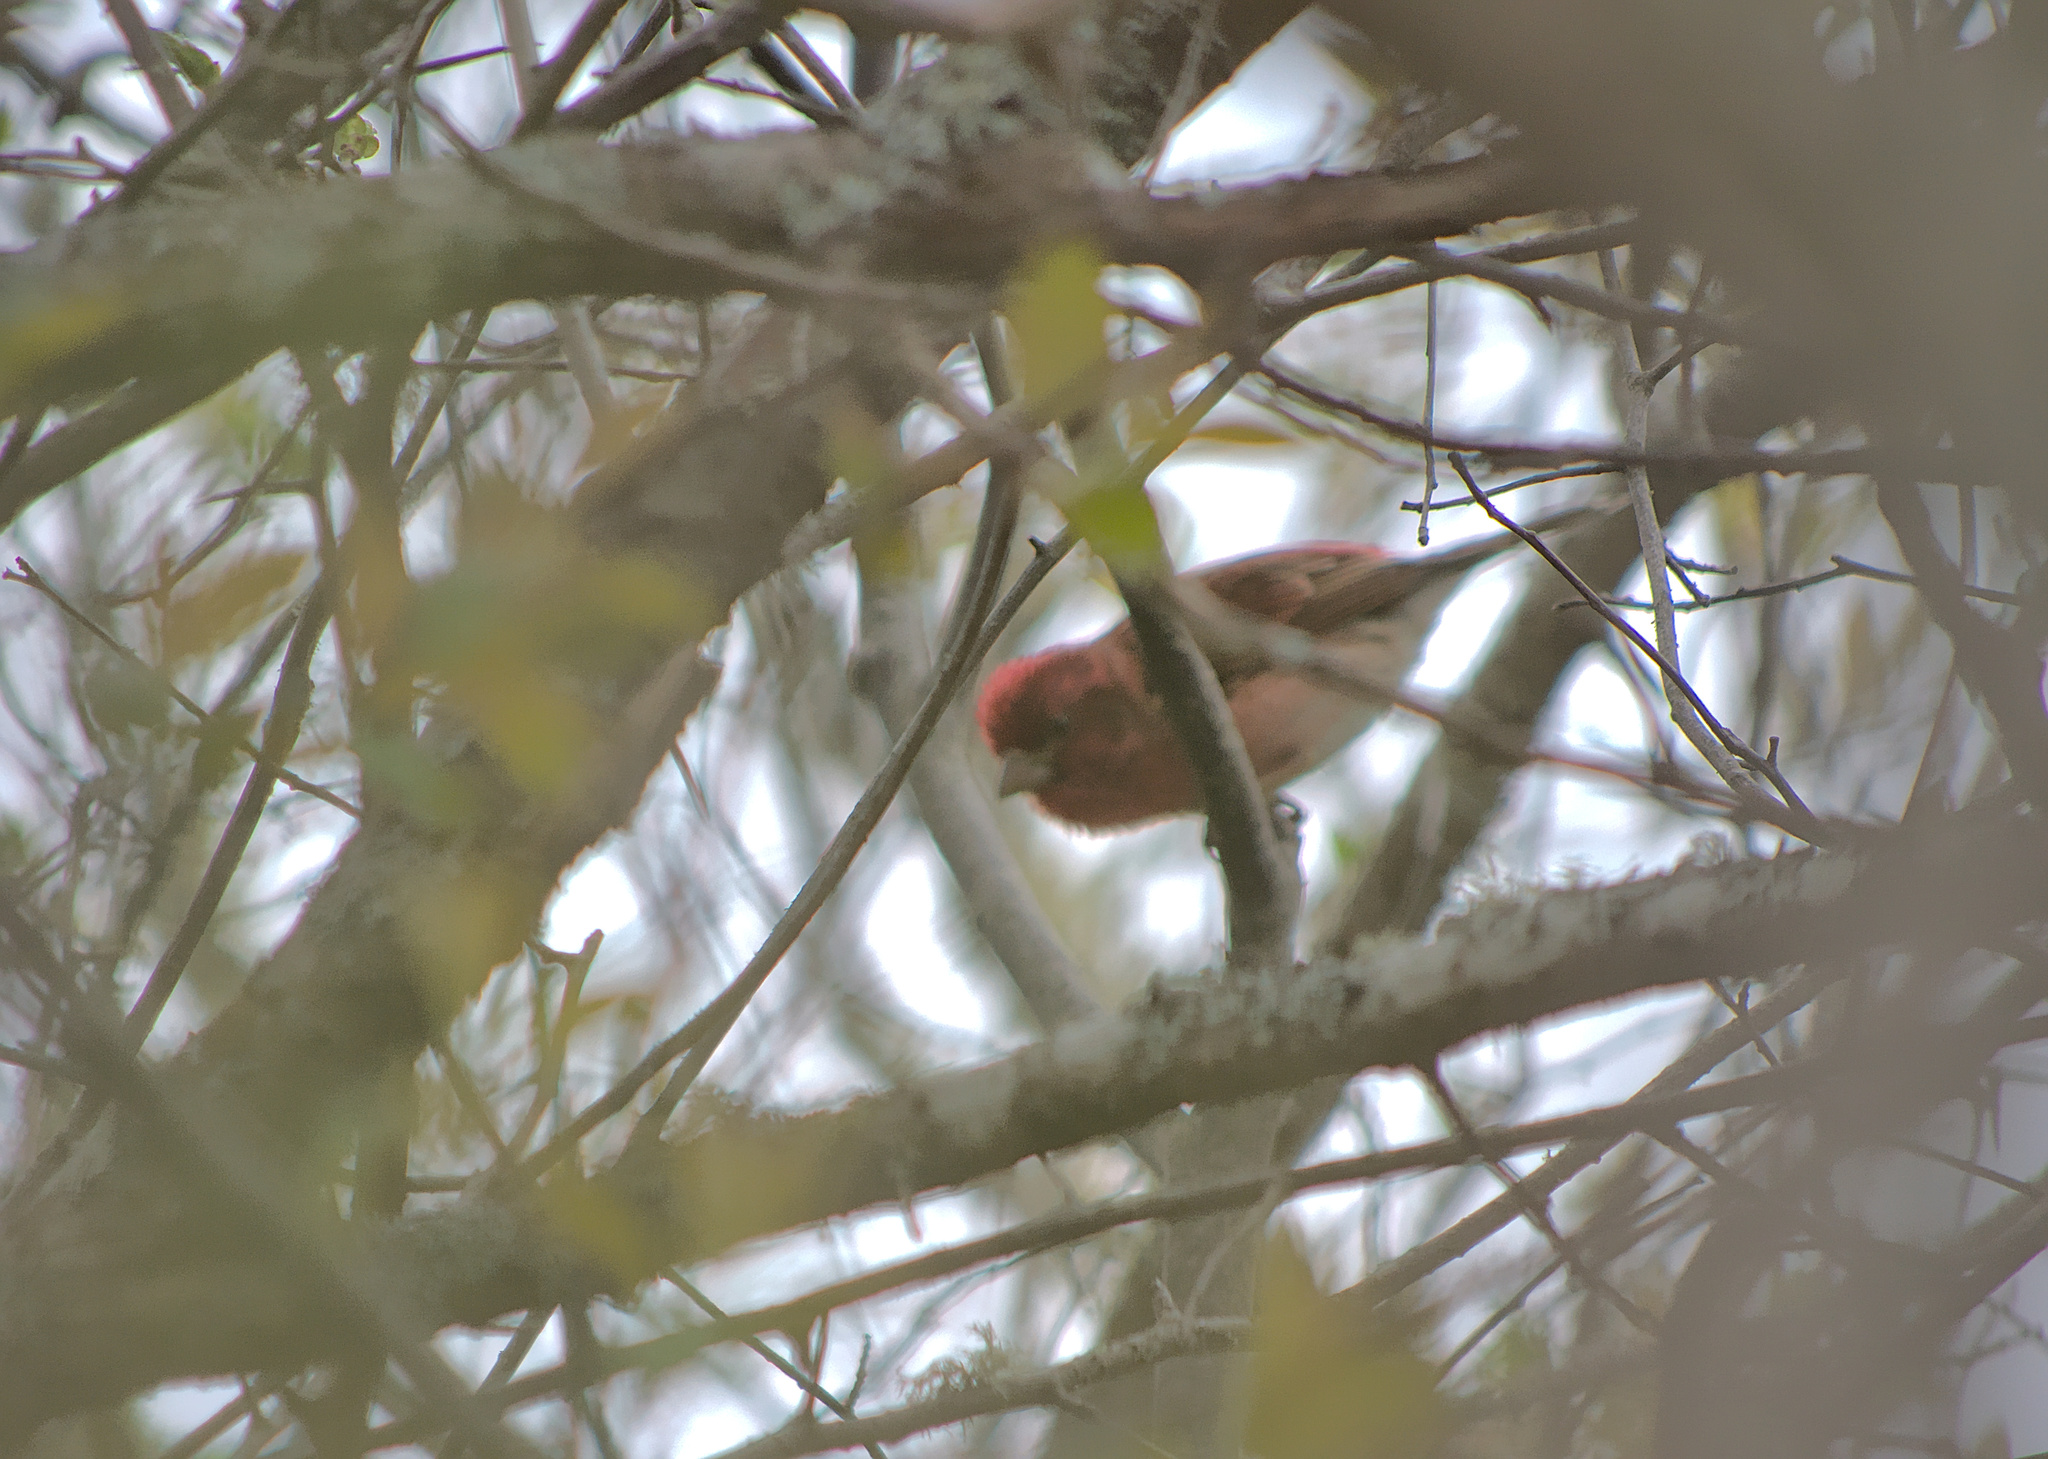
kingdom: Animalia
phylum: Chordata
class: Aves
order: Passeriformes
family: Fringillidae
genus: Haemorhous
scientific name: Haemorhous purpureus
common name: Purple finch
